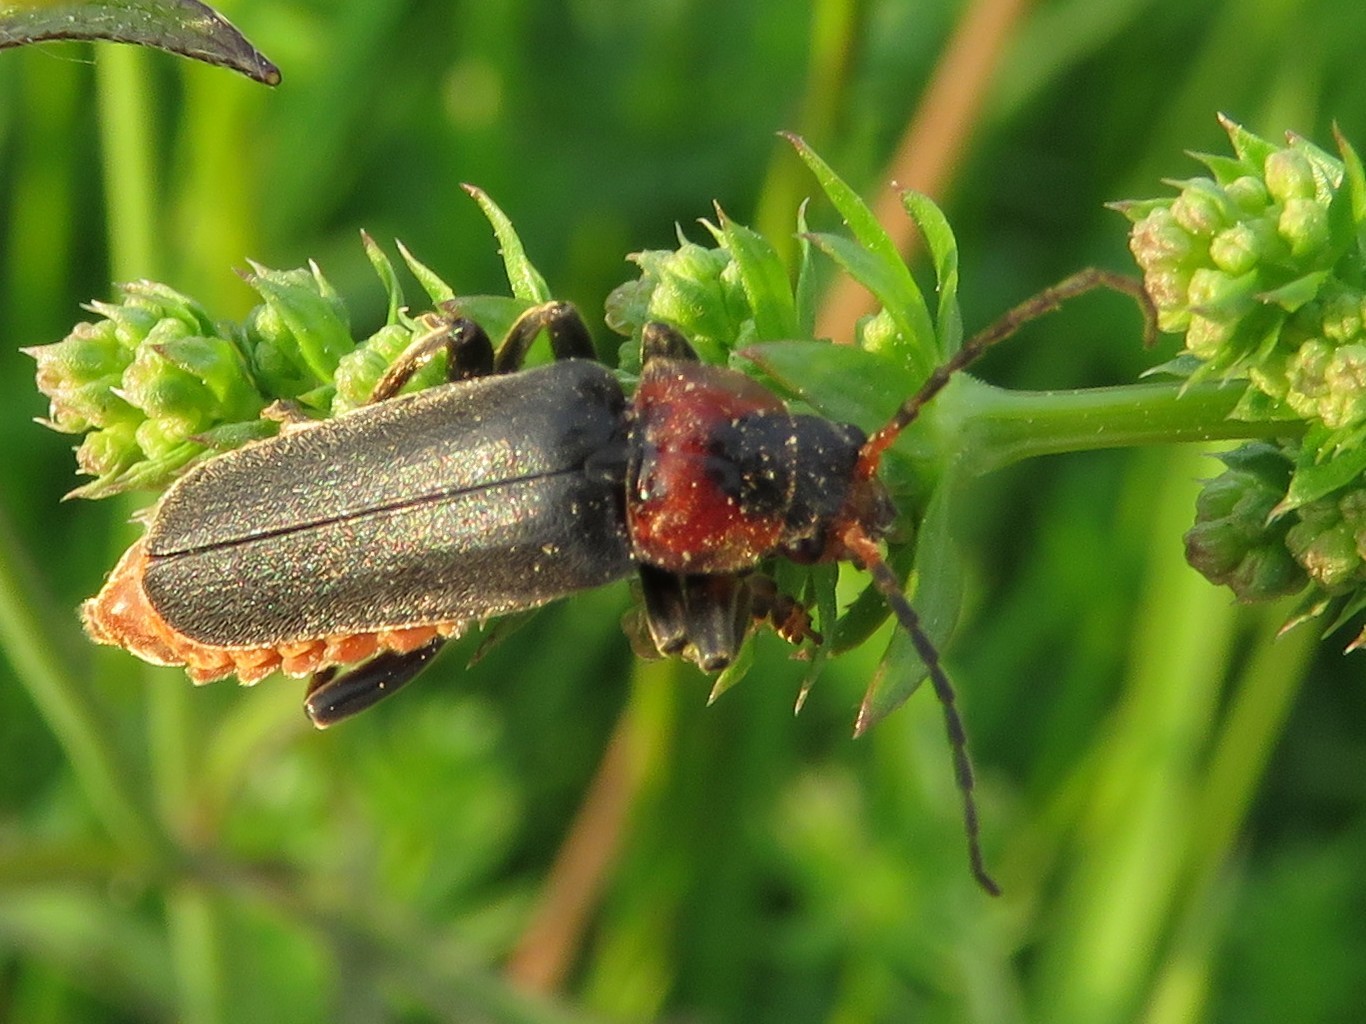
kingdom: Animalia
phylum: Arthropoda
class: Insecta
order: Coleoptera
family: Cantharidae
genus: Cantharis
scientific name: Cantharis fusca
